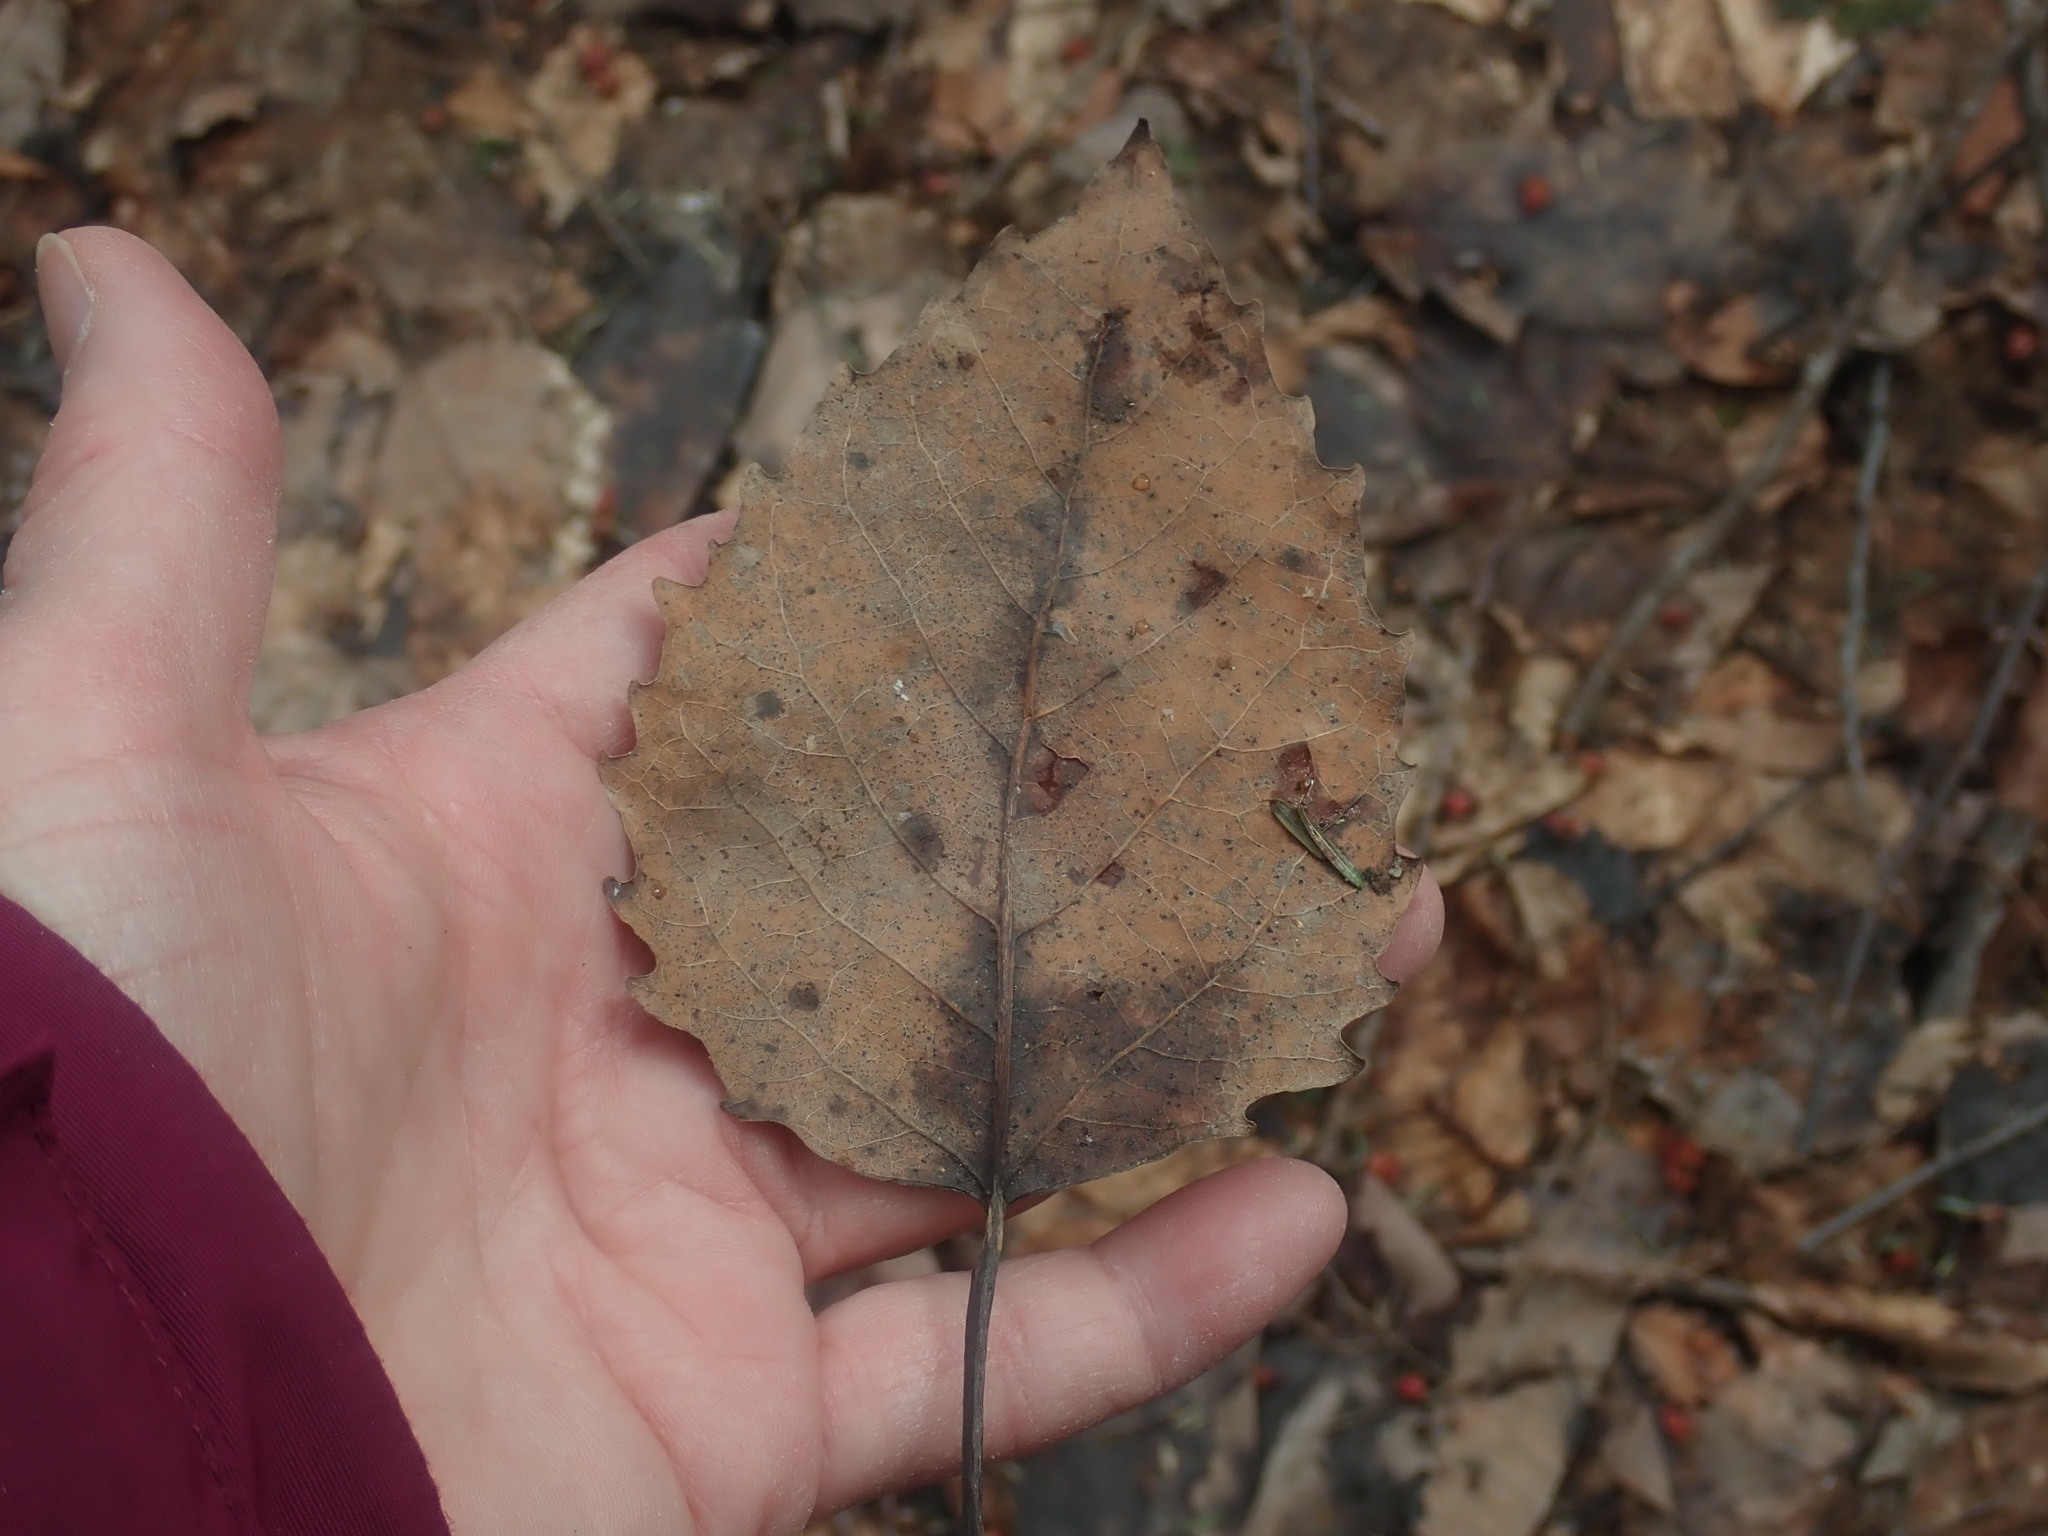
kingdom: Plantae
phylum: Tracheophyta
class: Magnoliopsida
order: Malpighiales
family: Salicaceae
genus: Populus
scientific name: Populus grandidentata
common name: Bigtooth aspen
